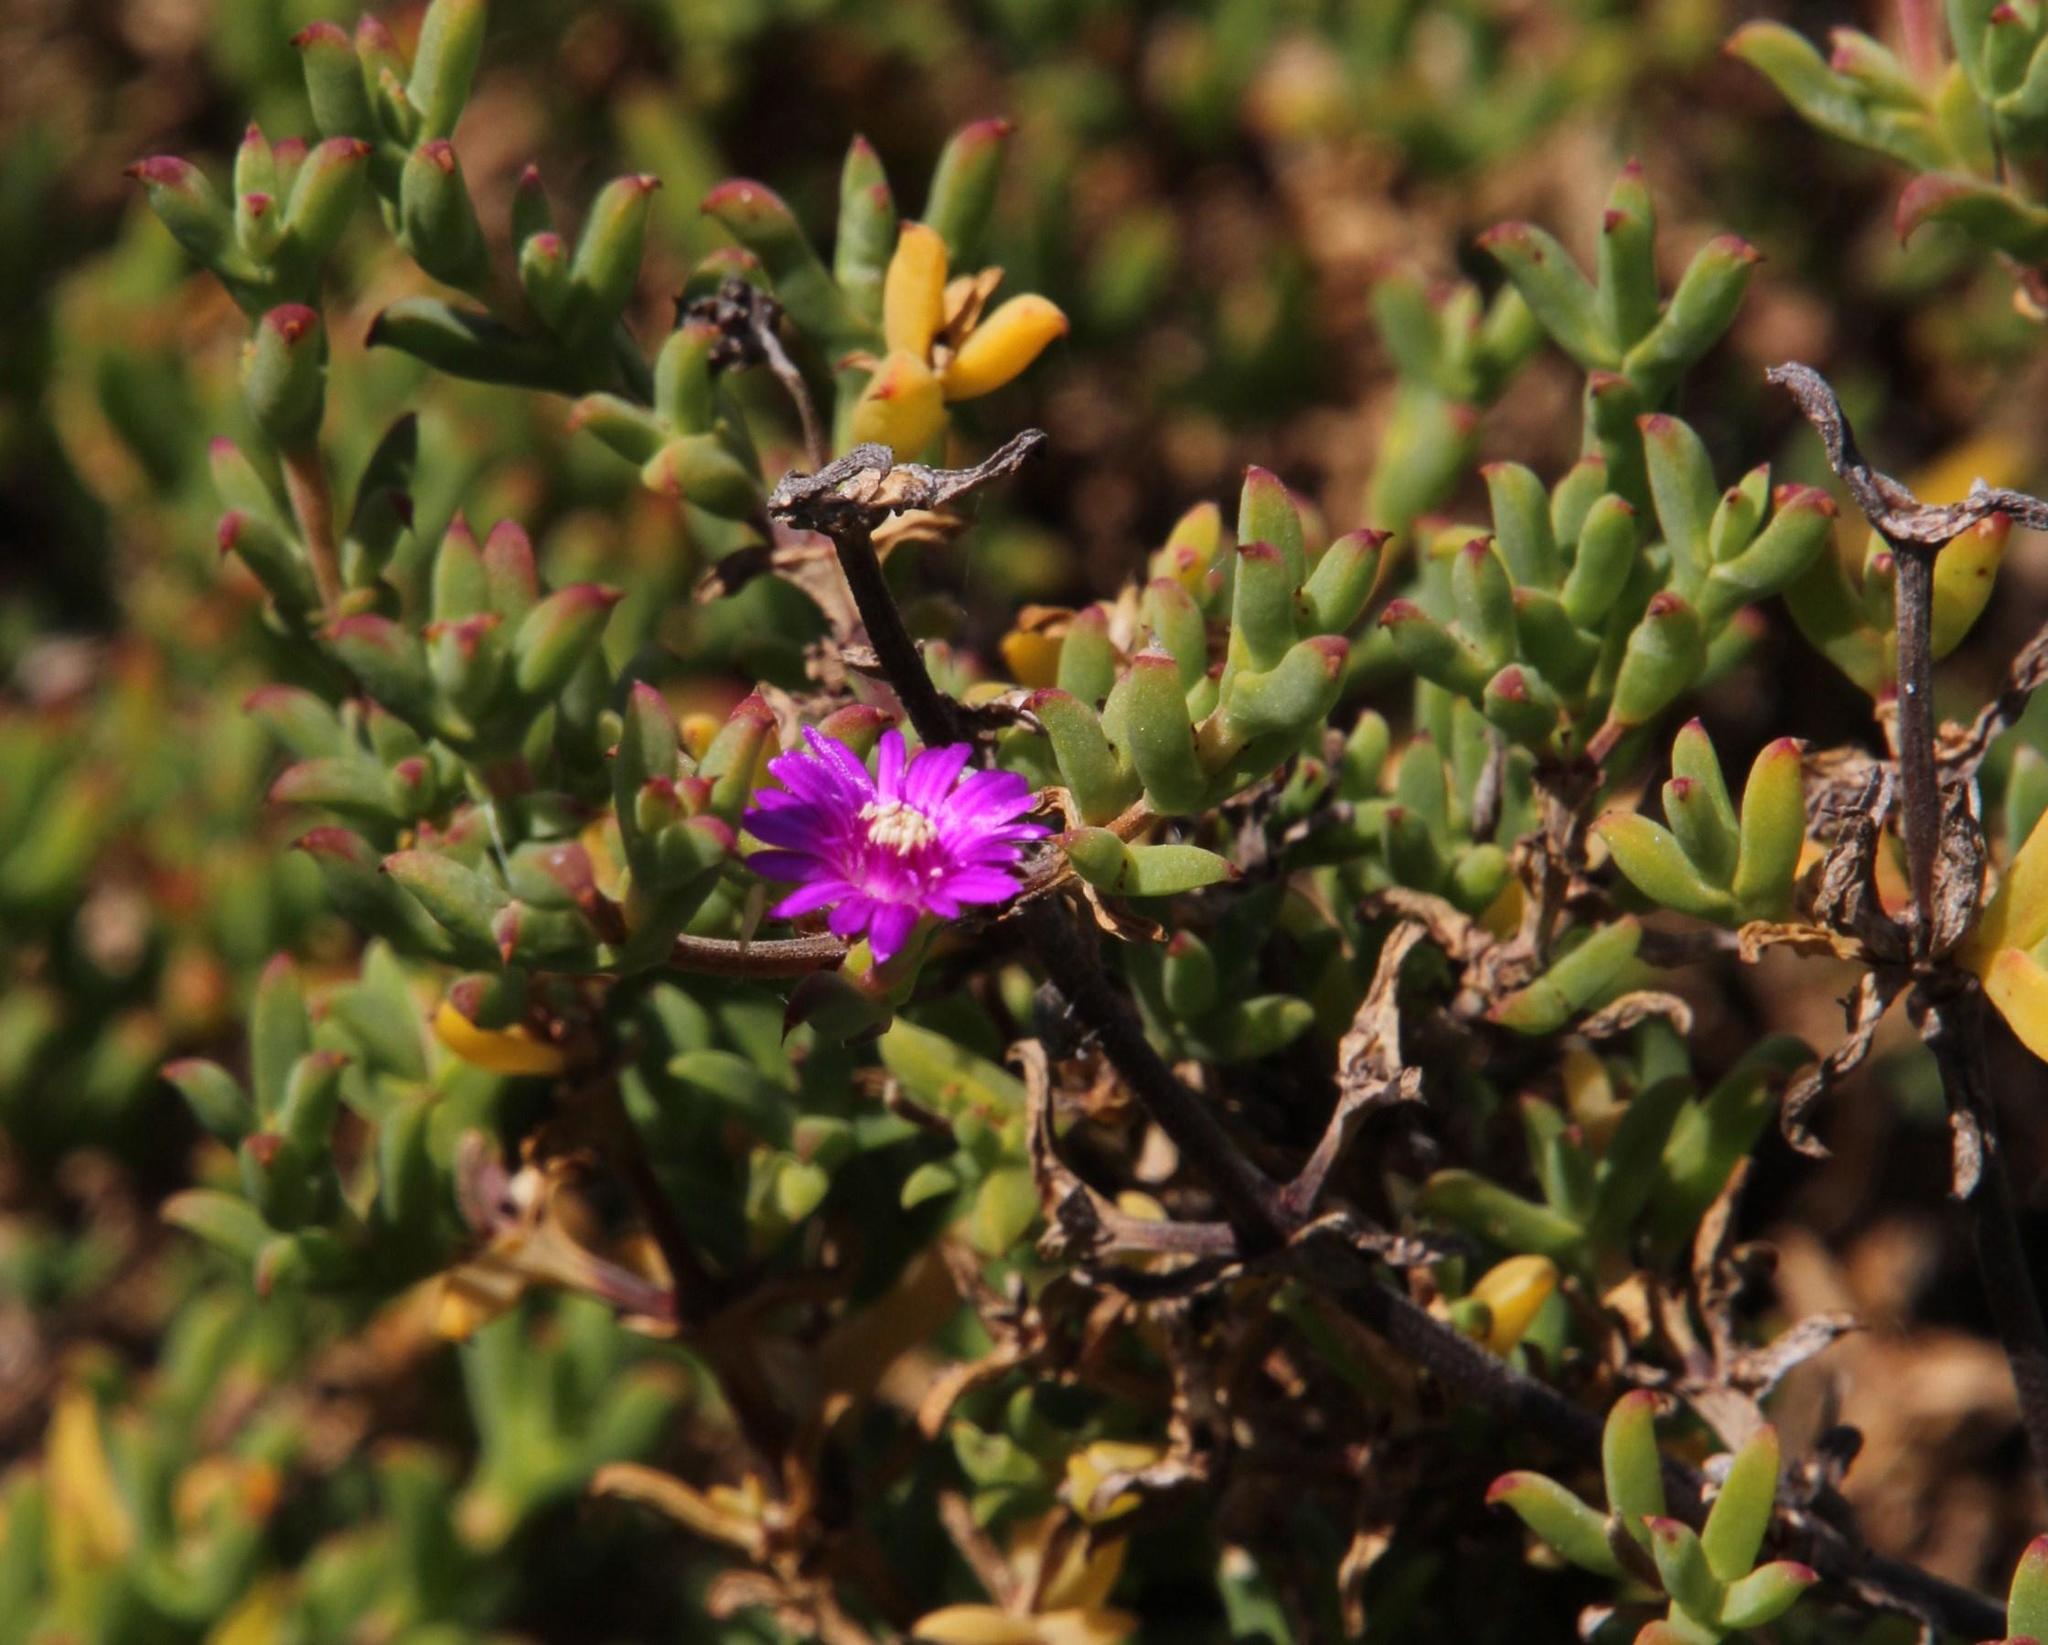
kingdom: Plantae
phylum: Tracheophyta
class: Magnoliopsida
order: Caryophyllales
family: Aizoaceae
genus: Delosperma
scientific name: Delosperma asperulum
